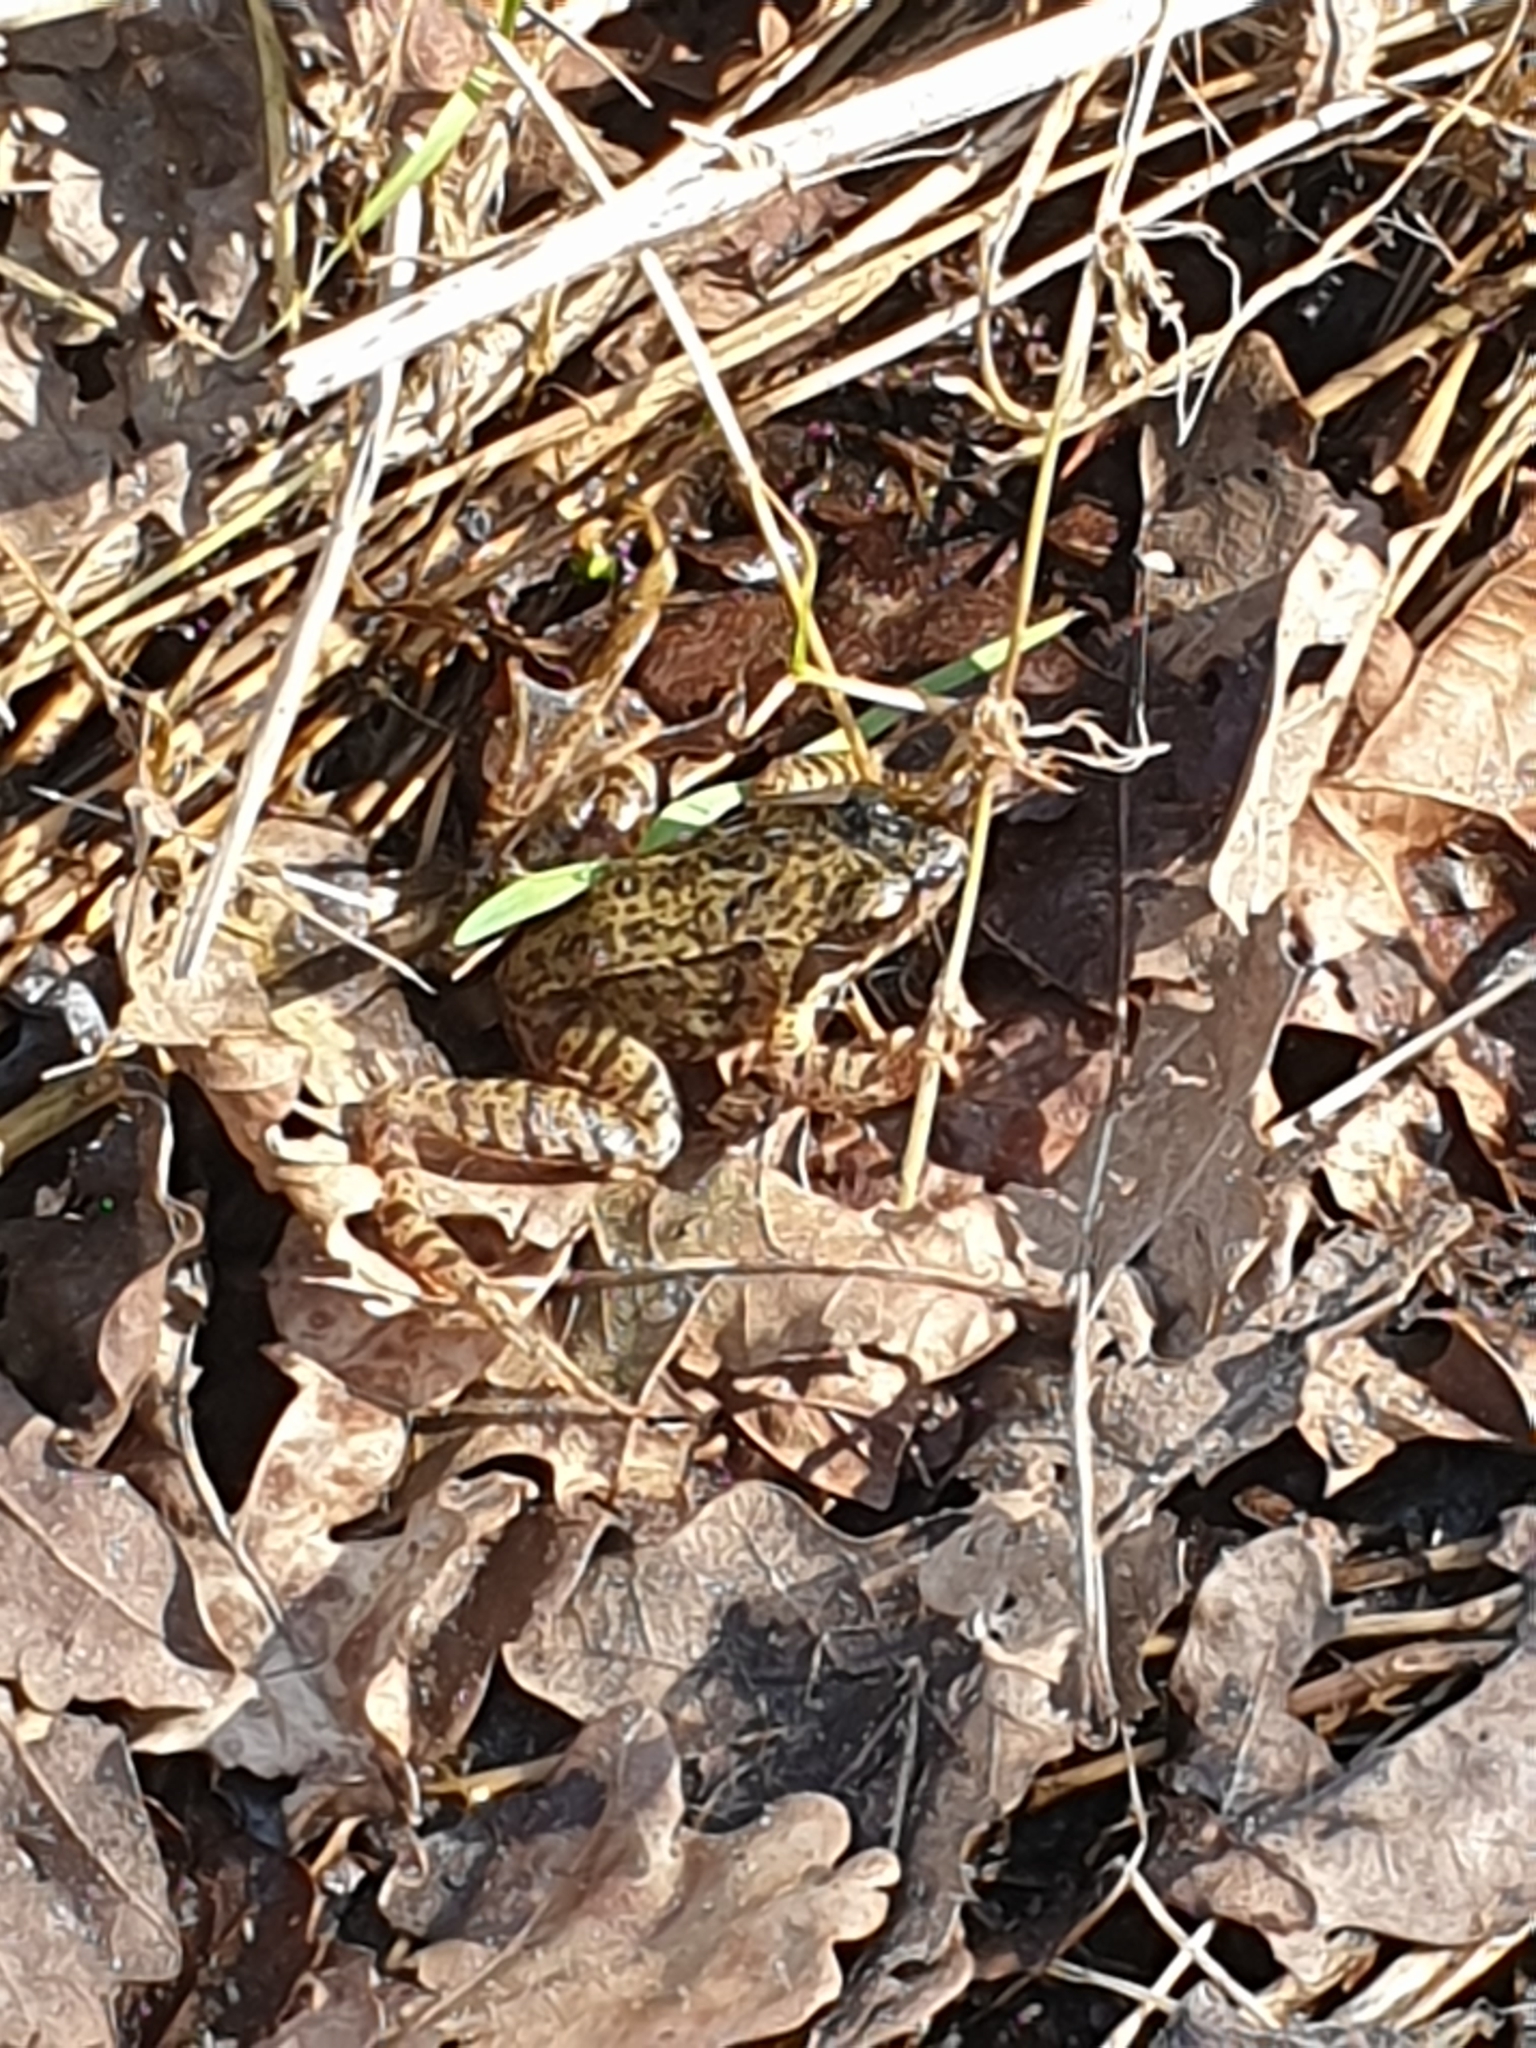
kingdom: Animalia
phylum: Chordata
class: Amphibia
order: Anura
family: Ranidae
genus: Rana
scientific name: Rana temporaria
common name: Common frog
